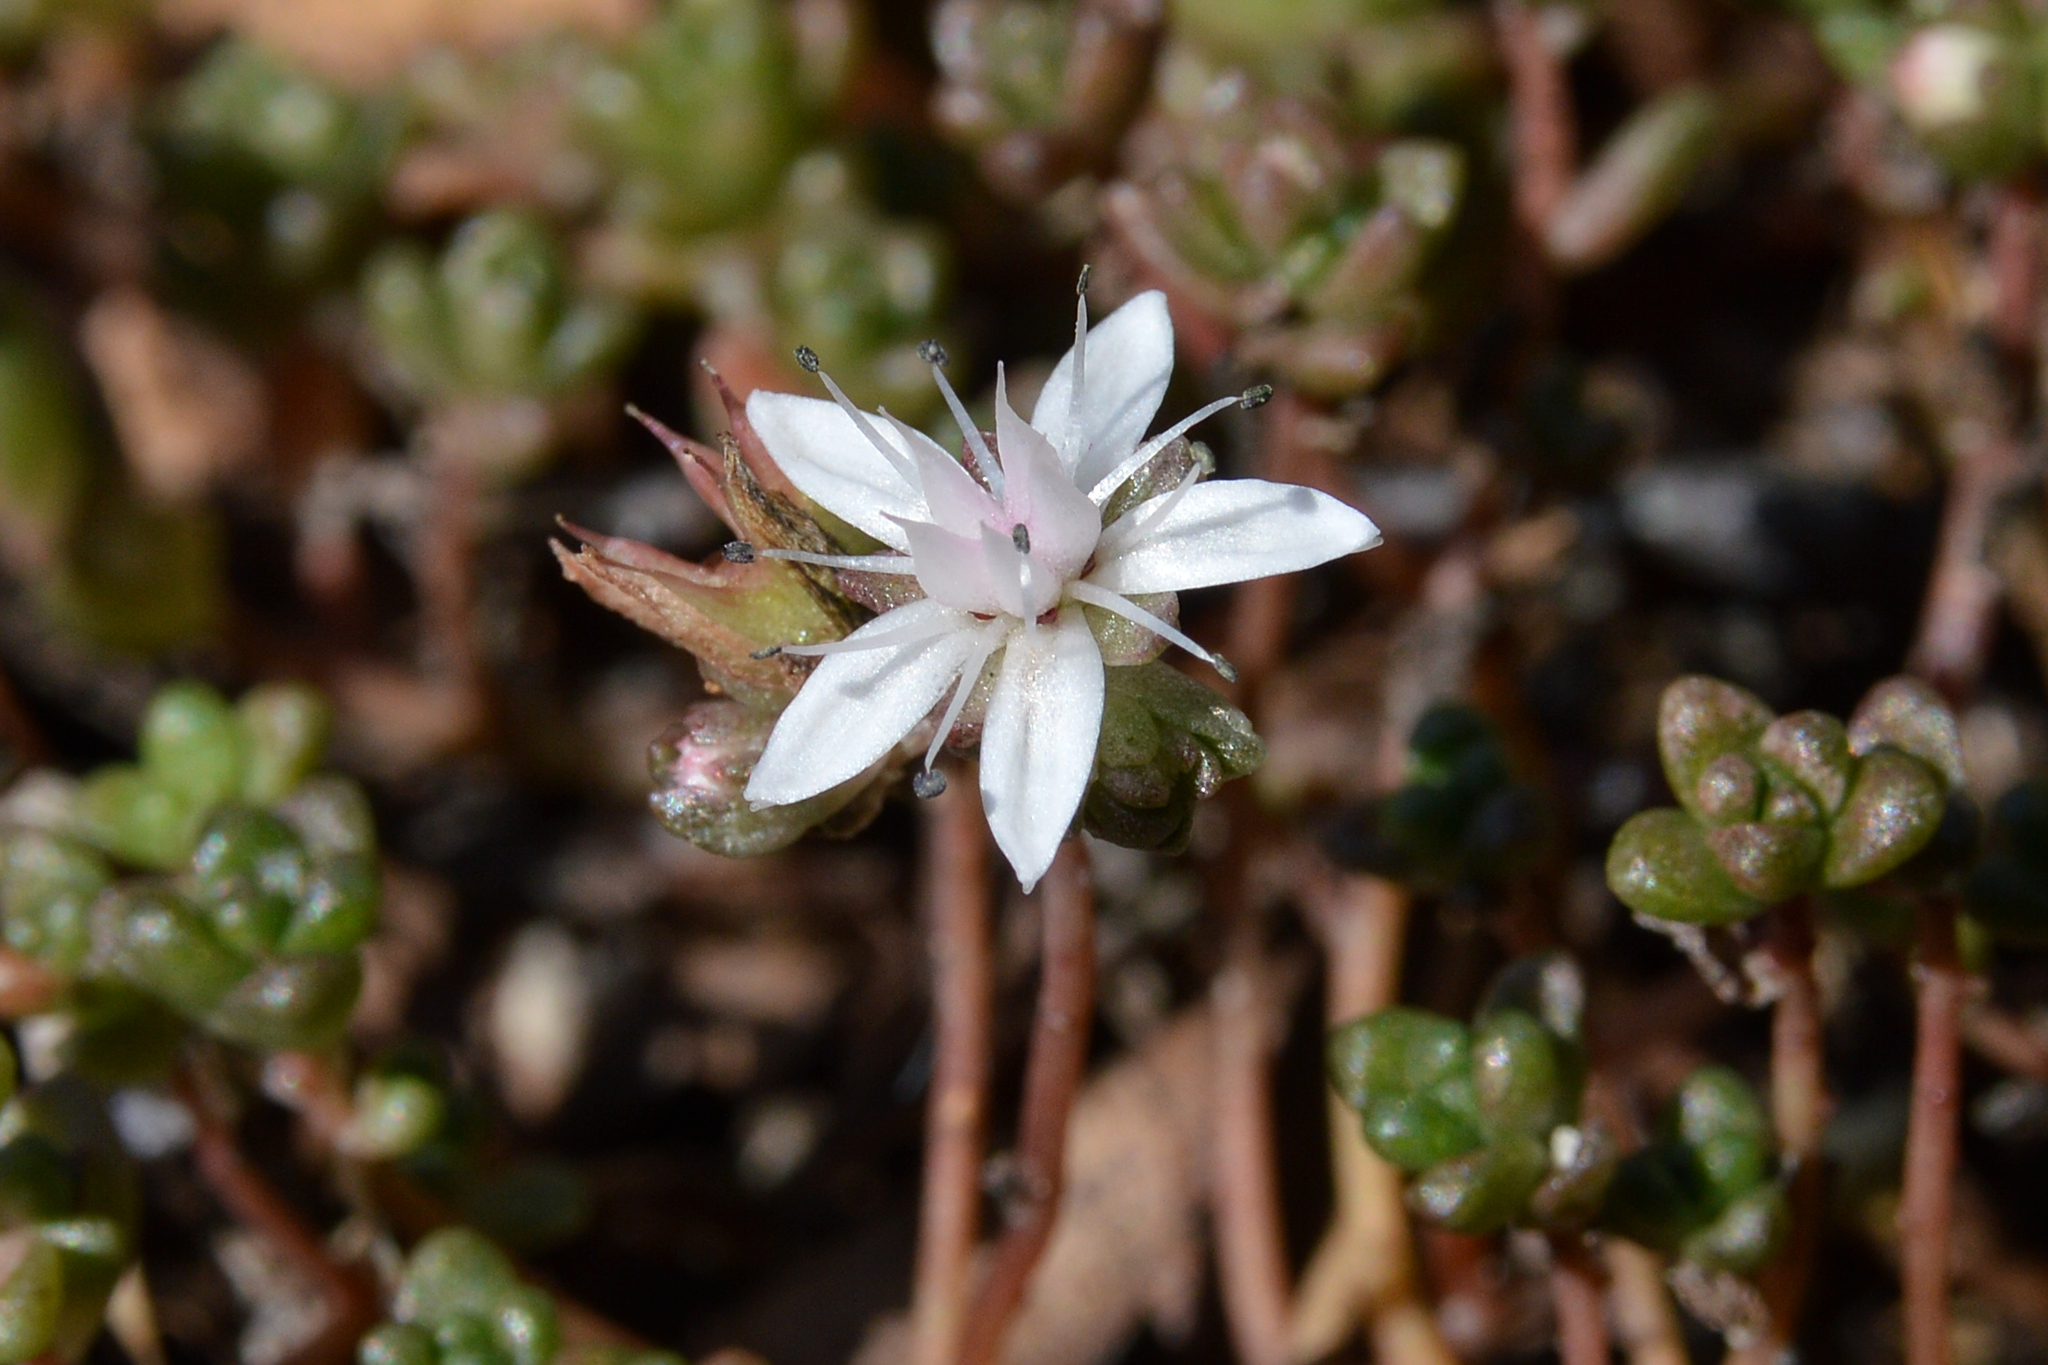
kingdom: Plantae
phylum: Tracheophyta
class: Magnoliopsida
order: Saxifragales
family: Crassulaceae
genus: Sedum
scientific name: Sedum anglicum
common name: English stonecrop
